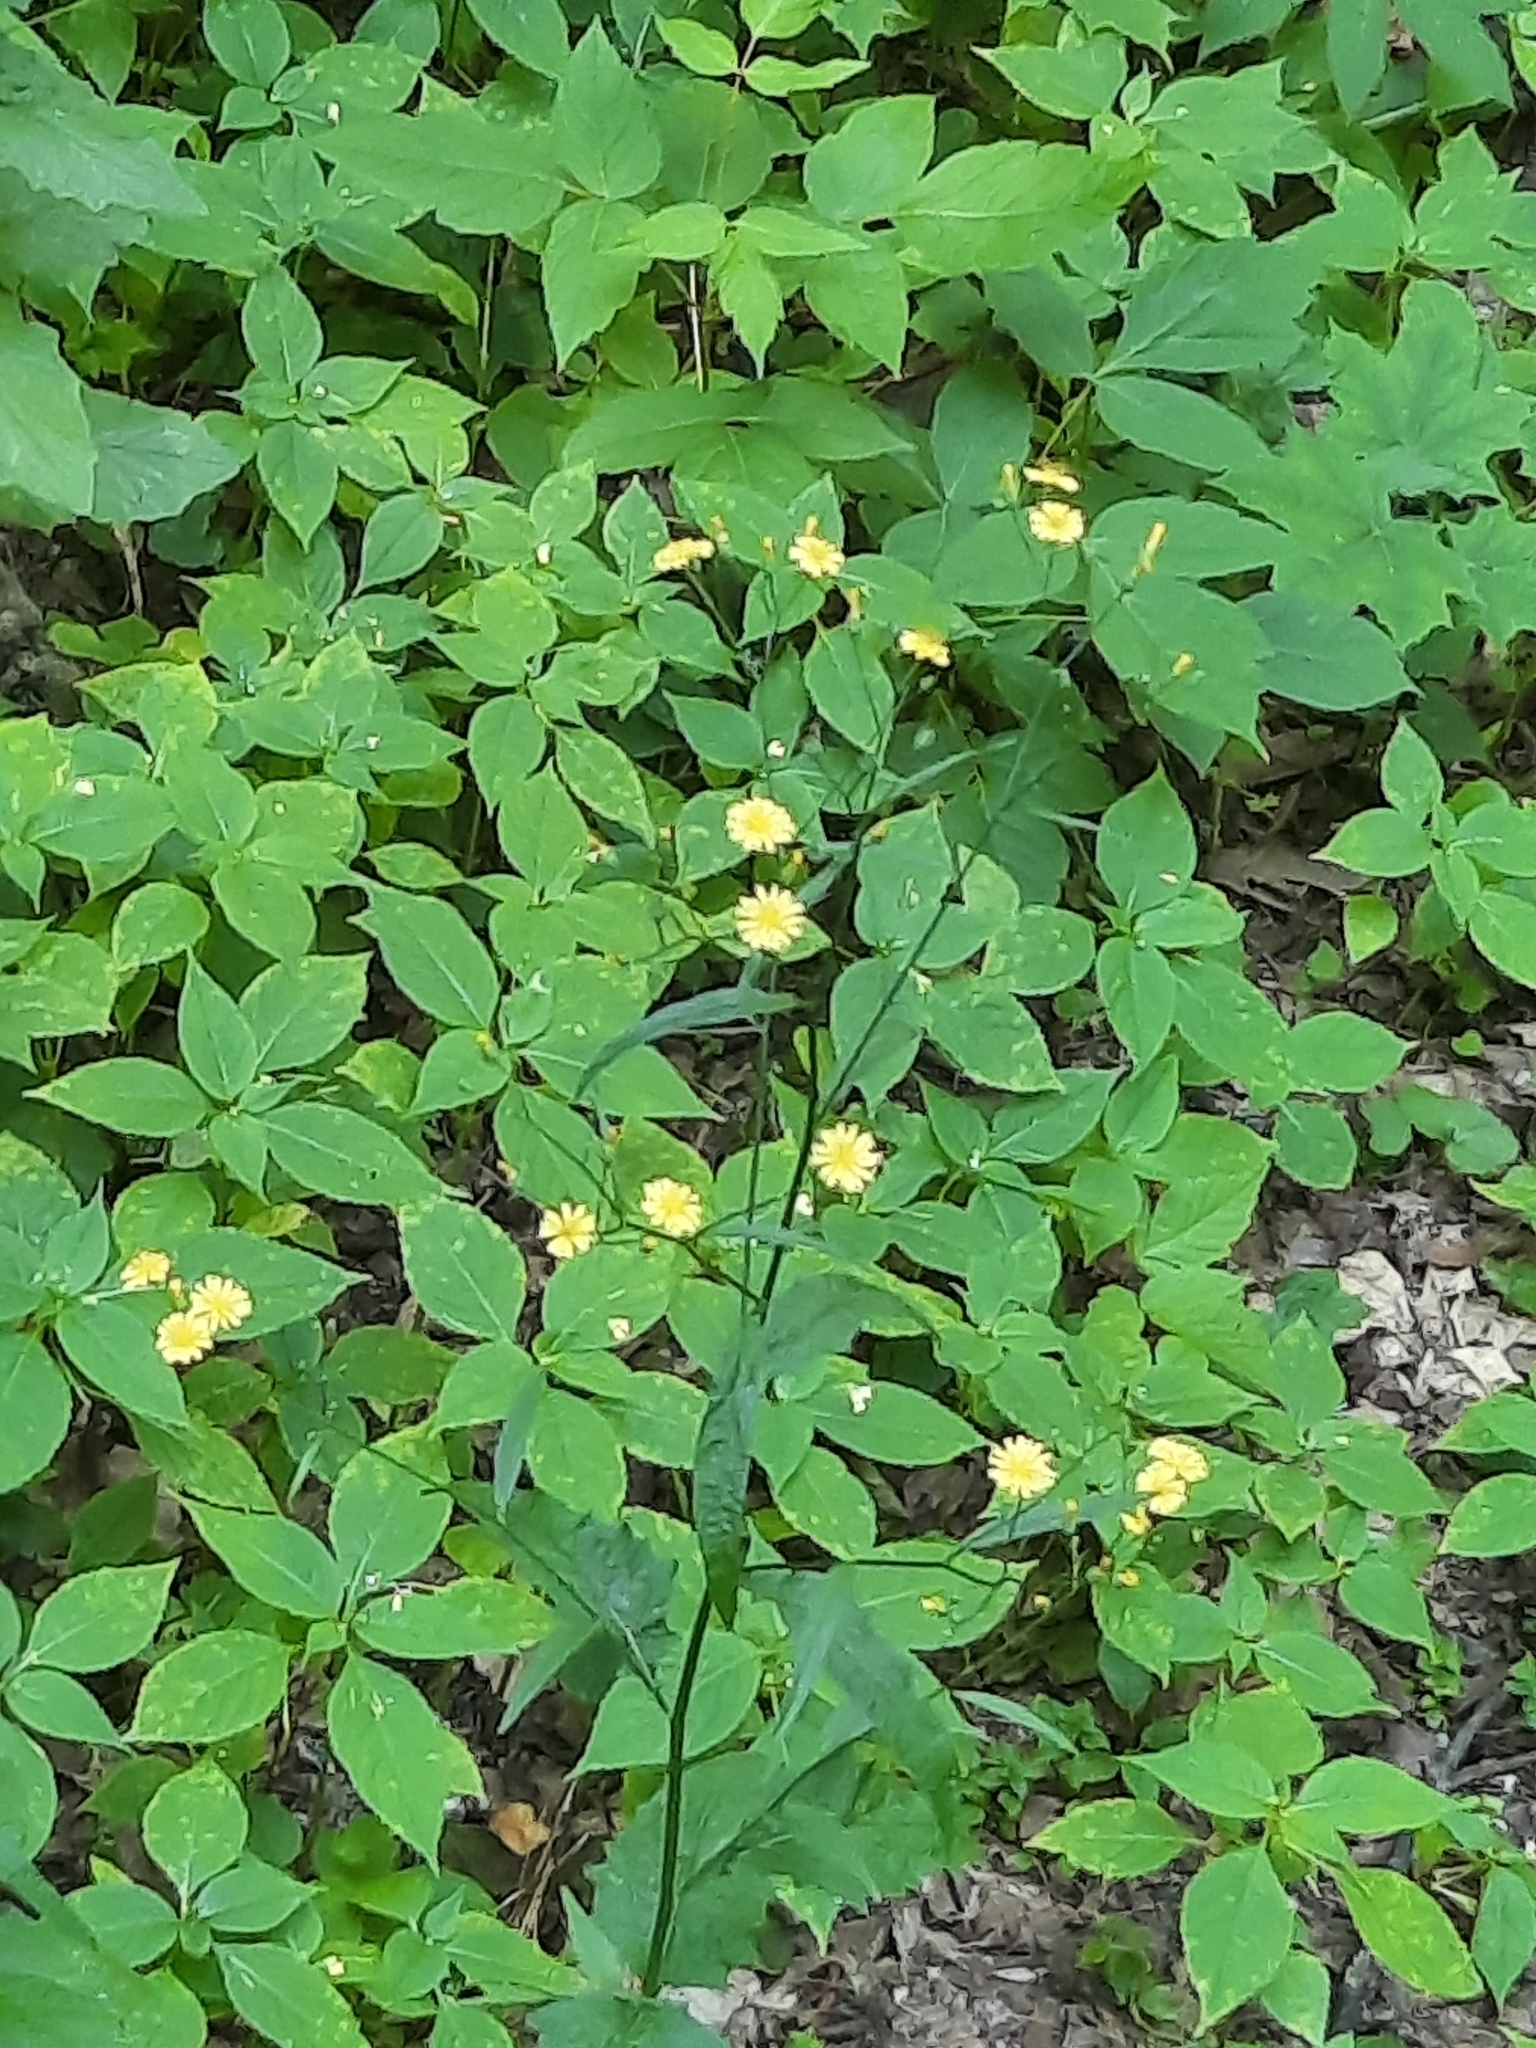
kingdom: Plantae
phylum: Tracheophyta
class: Magnoliopsida
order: Asterales
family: Asteraceae
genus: Lapsana
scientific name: Lapsana communis
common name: Nipplewort
